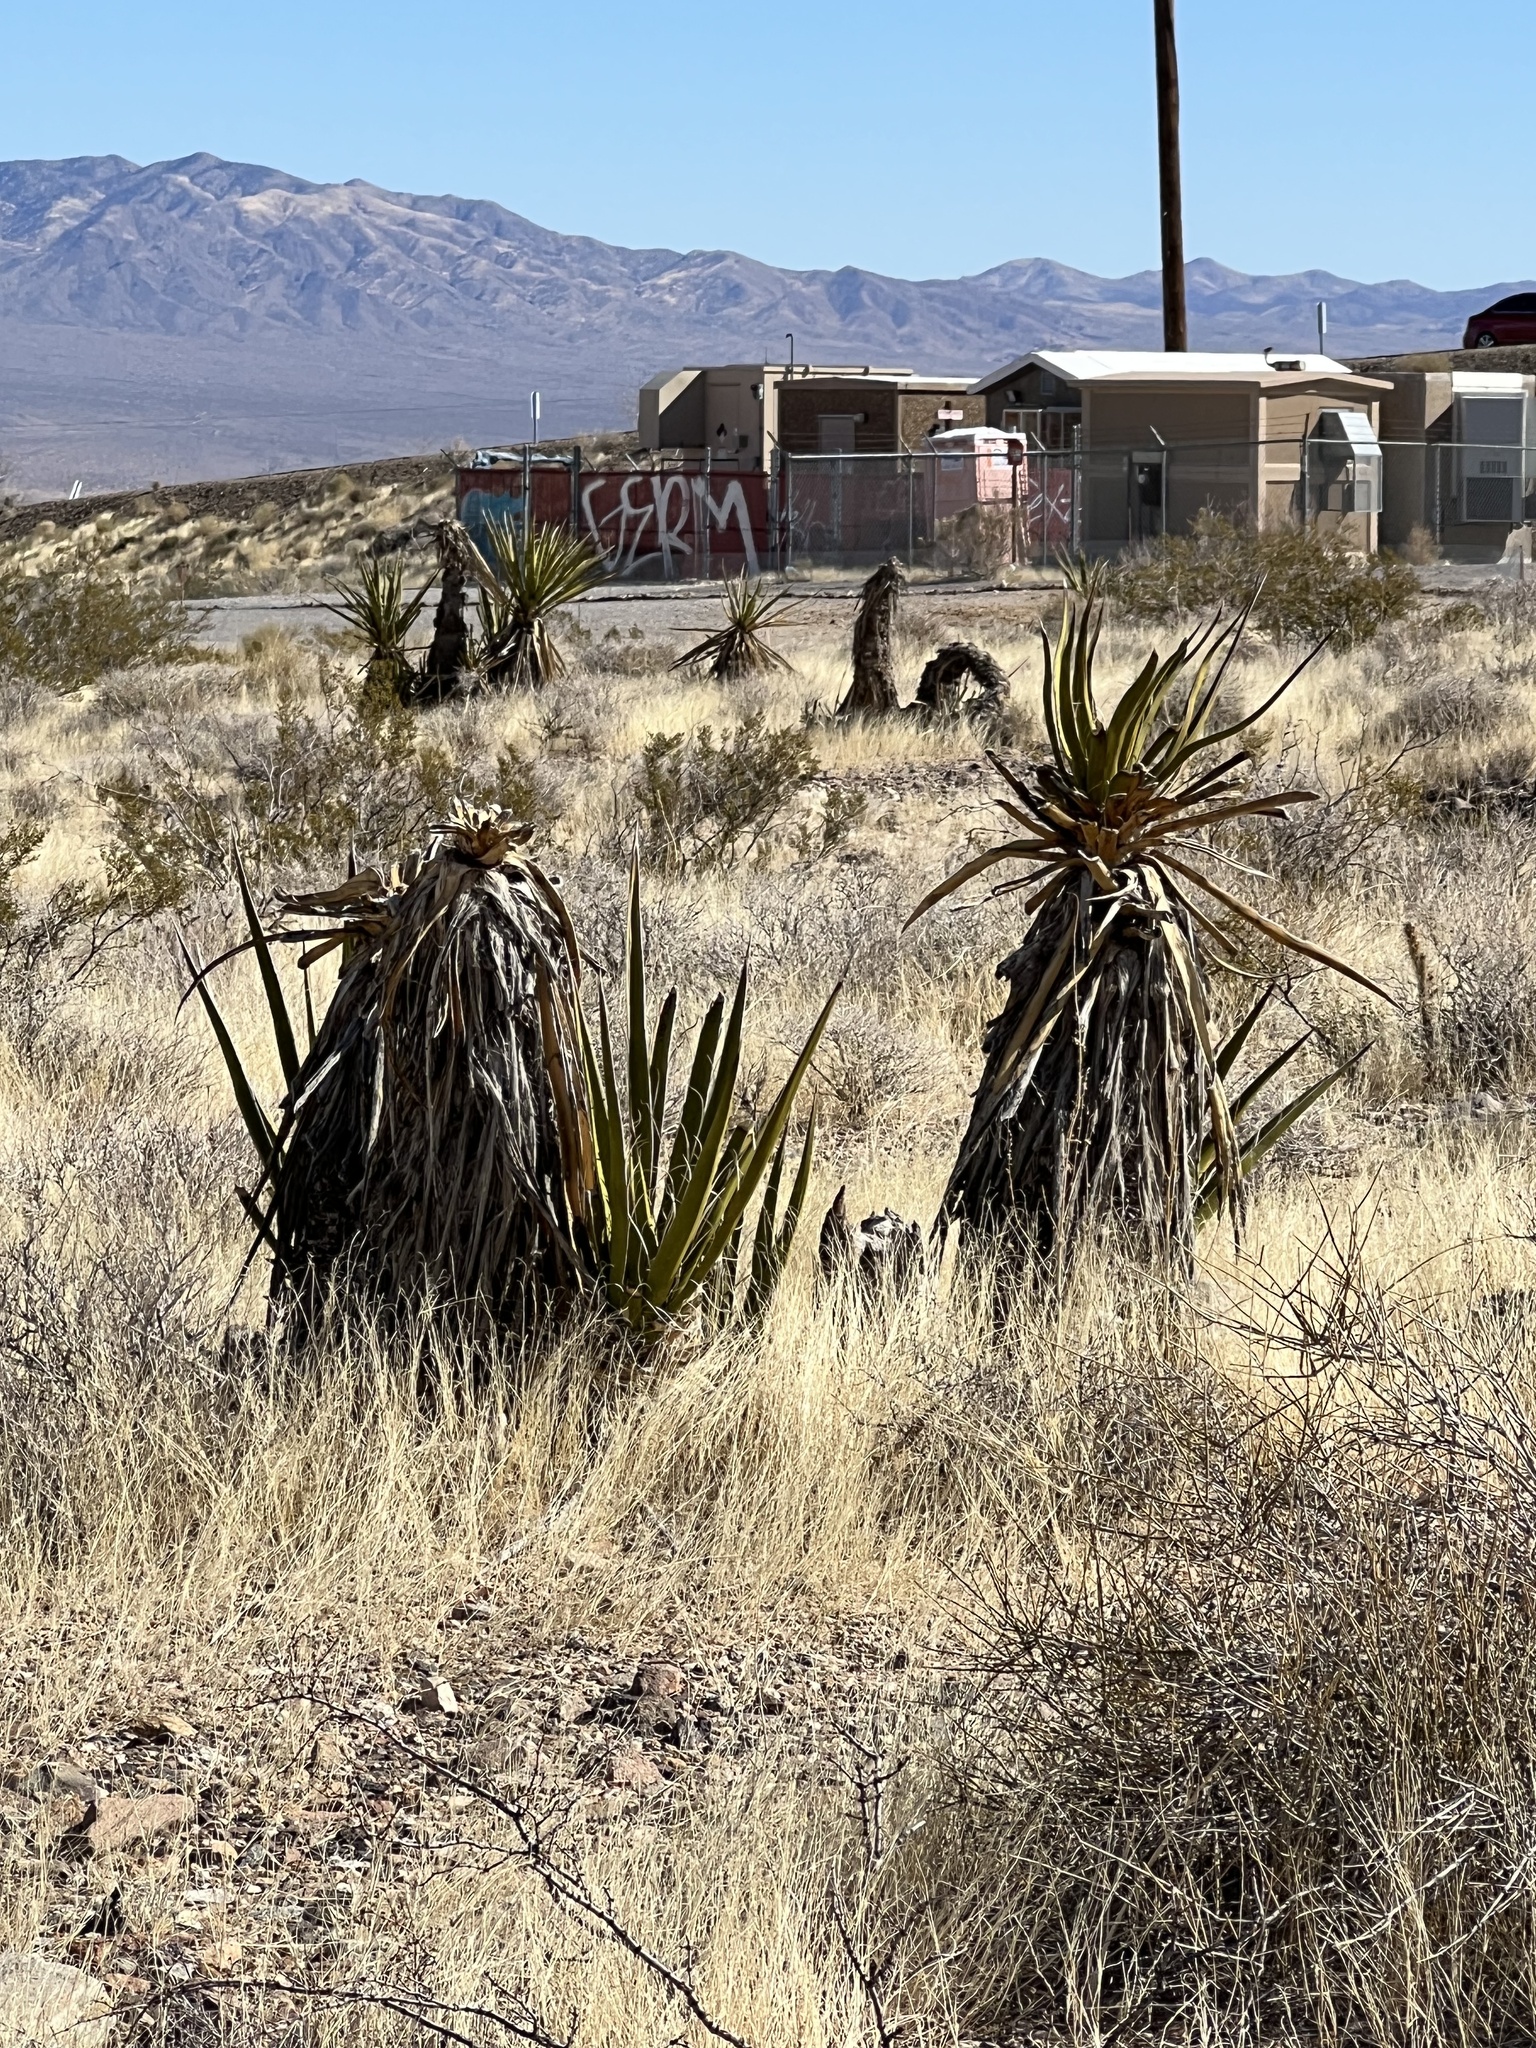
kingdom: Plantae
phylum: Tracheophyta
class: Liliopsida
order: Asparagales
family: Asparagaceae
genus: Yucca
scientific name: Yucca schidigera
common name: Mojave yucca
